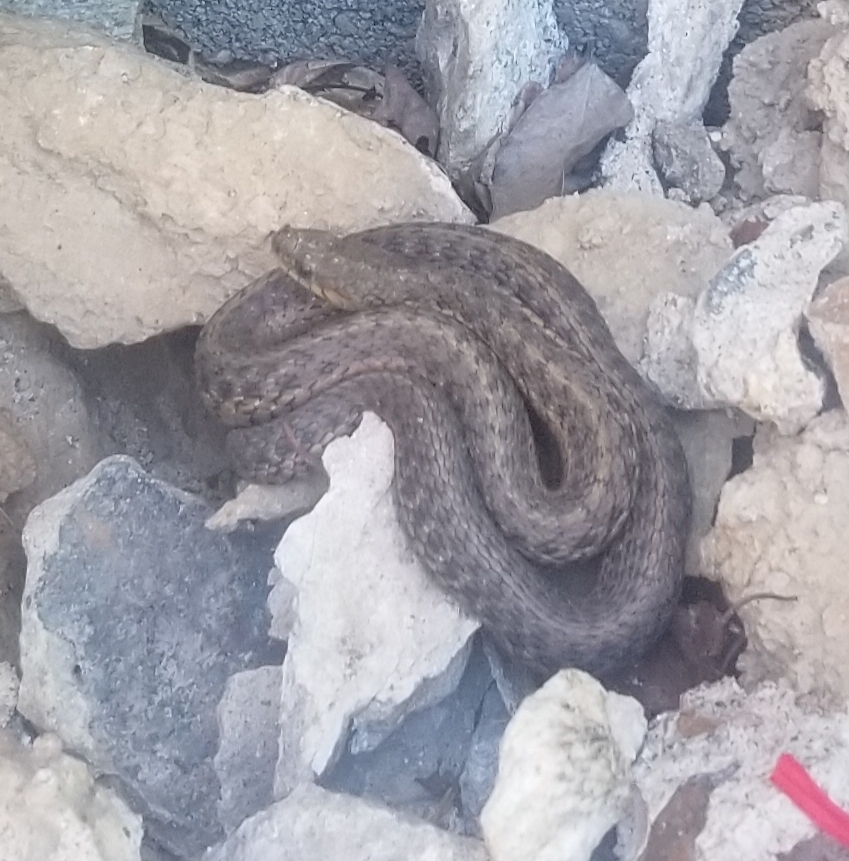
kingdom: Animalia
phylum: Chordata
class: Squamata
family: Colubridae
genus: Thamnophis
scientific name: Thamnophis sirtalis
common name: Common garter snake
